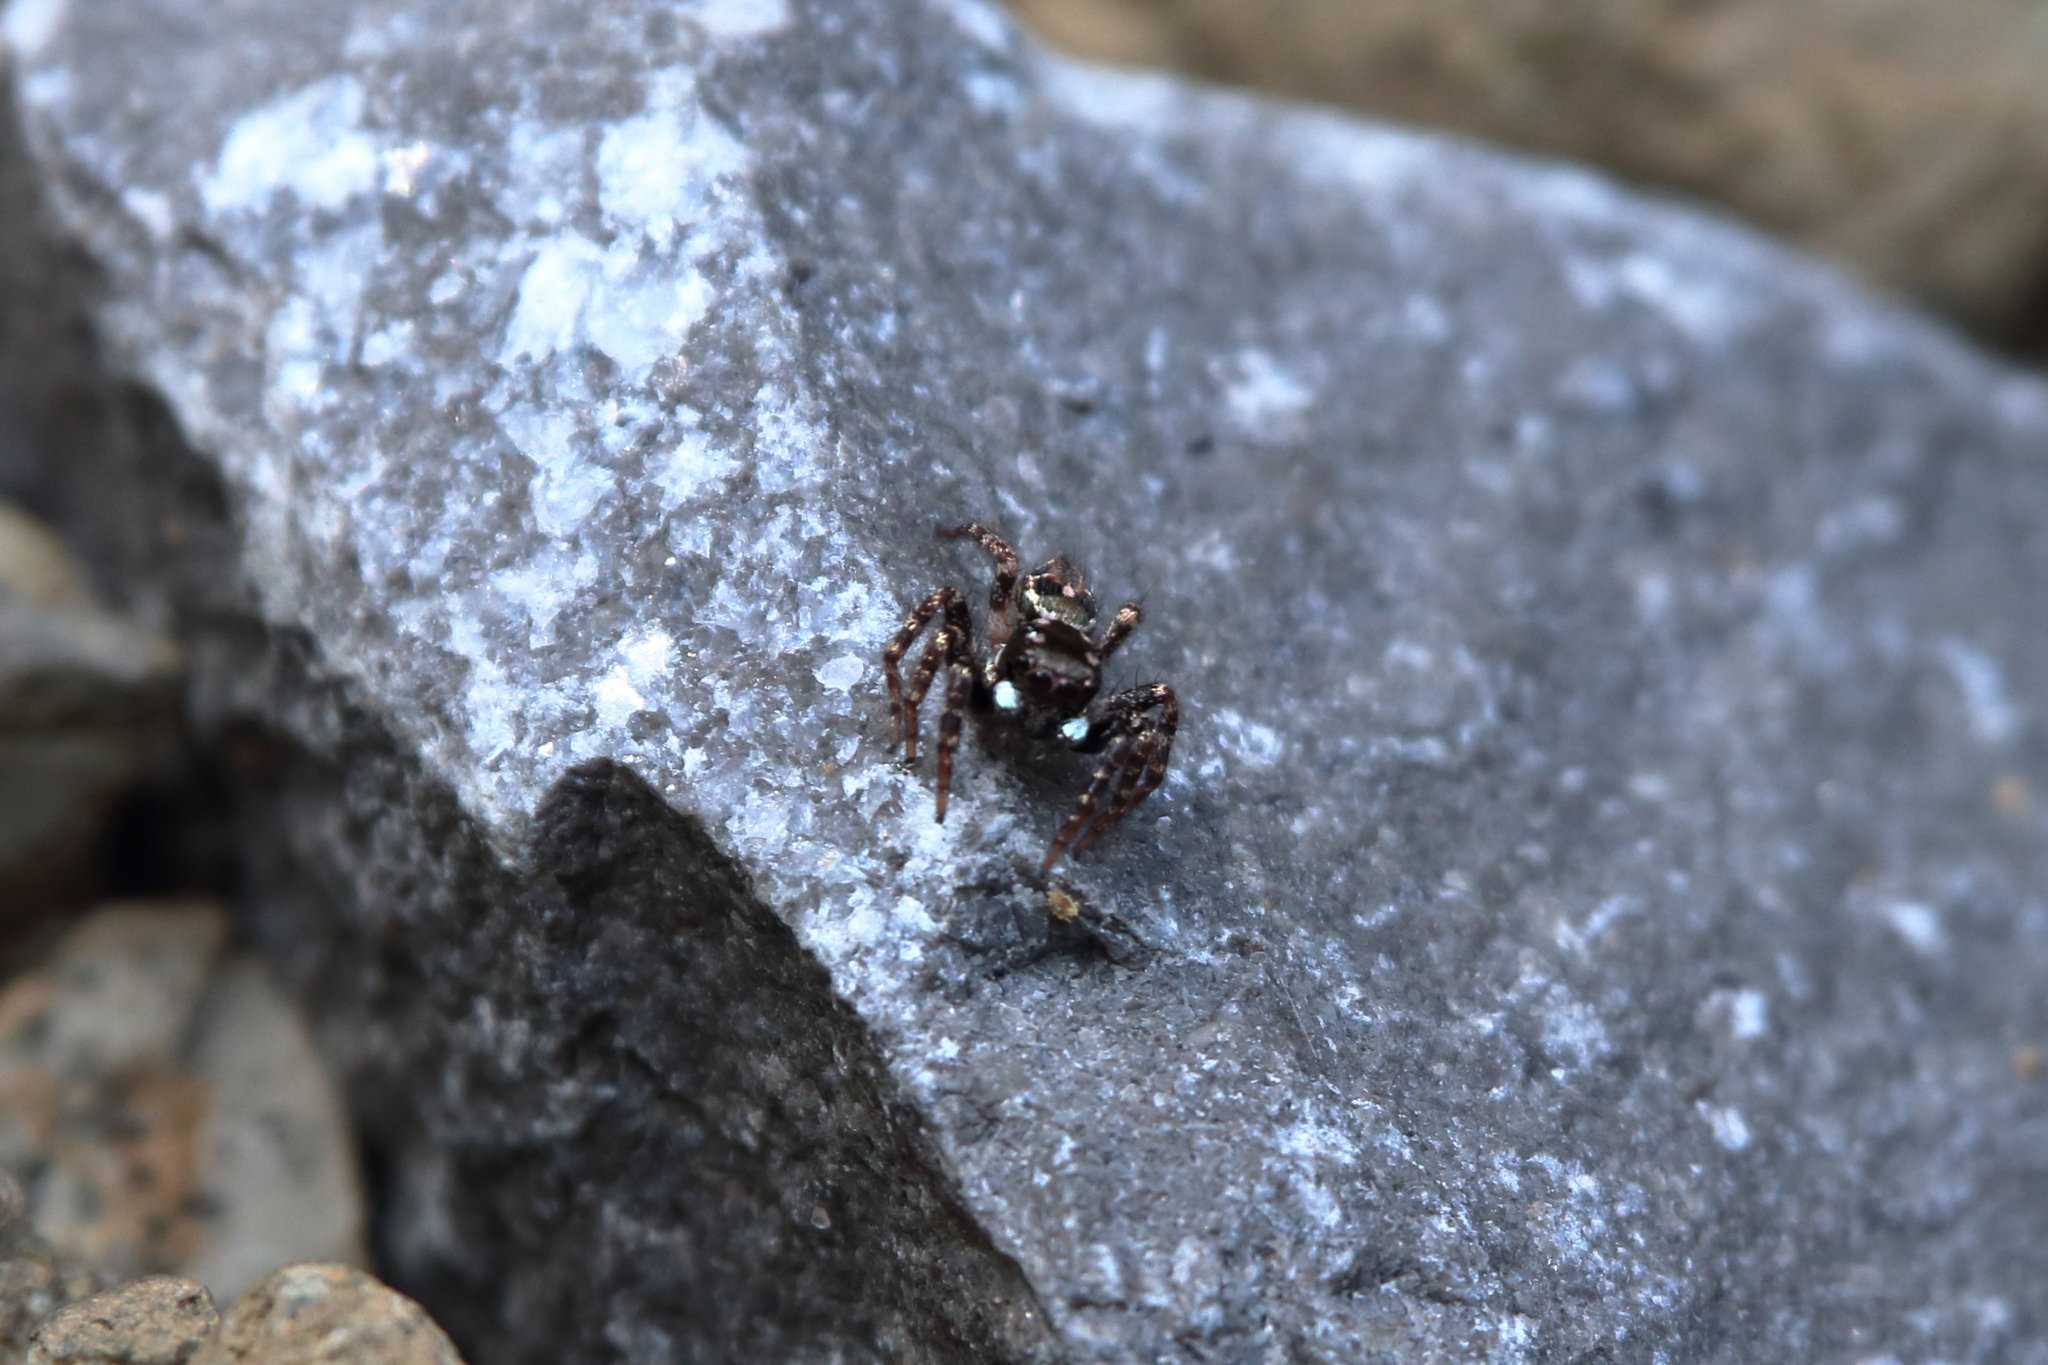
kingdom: Animalia
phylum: Arthropoda
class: Arachnida
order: Araneae
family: Salticidae
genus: Anasaitis
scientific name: Anasaitis canosa
